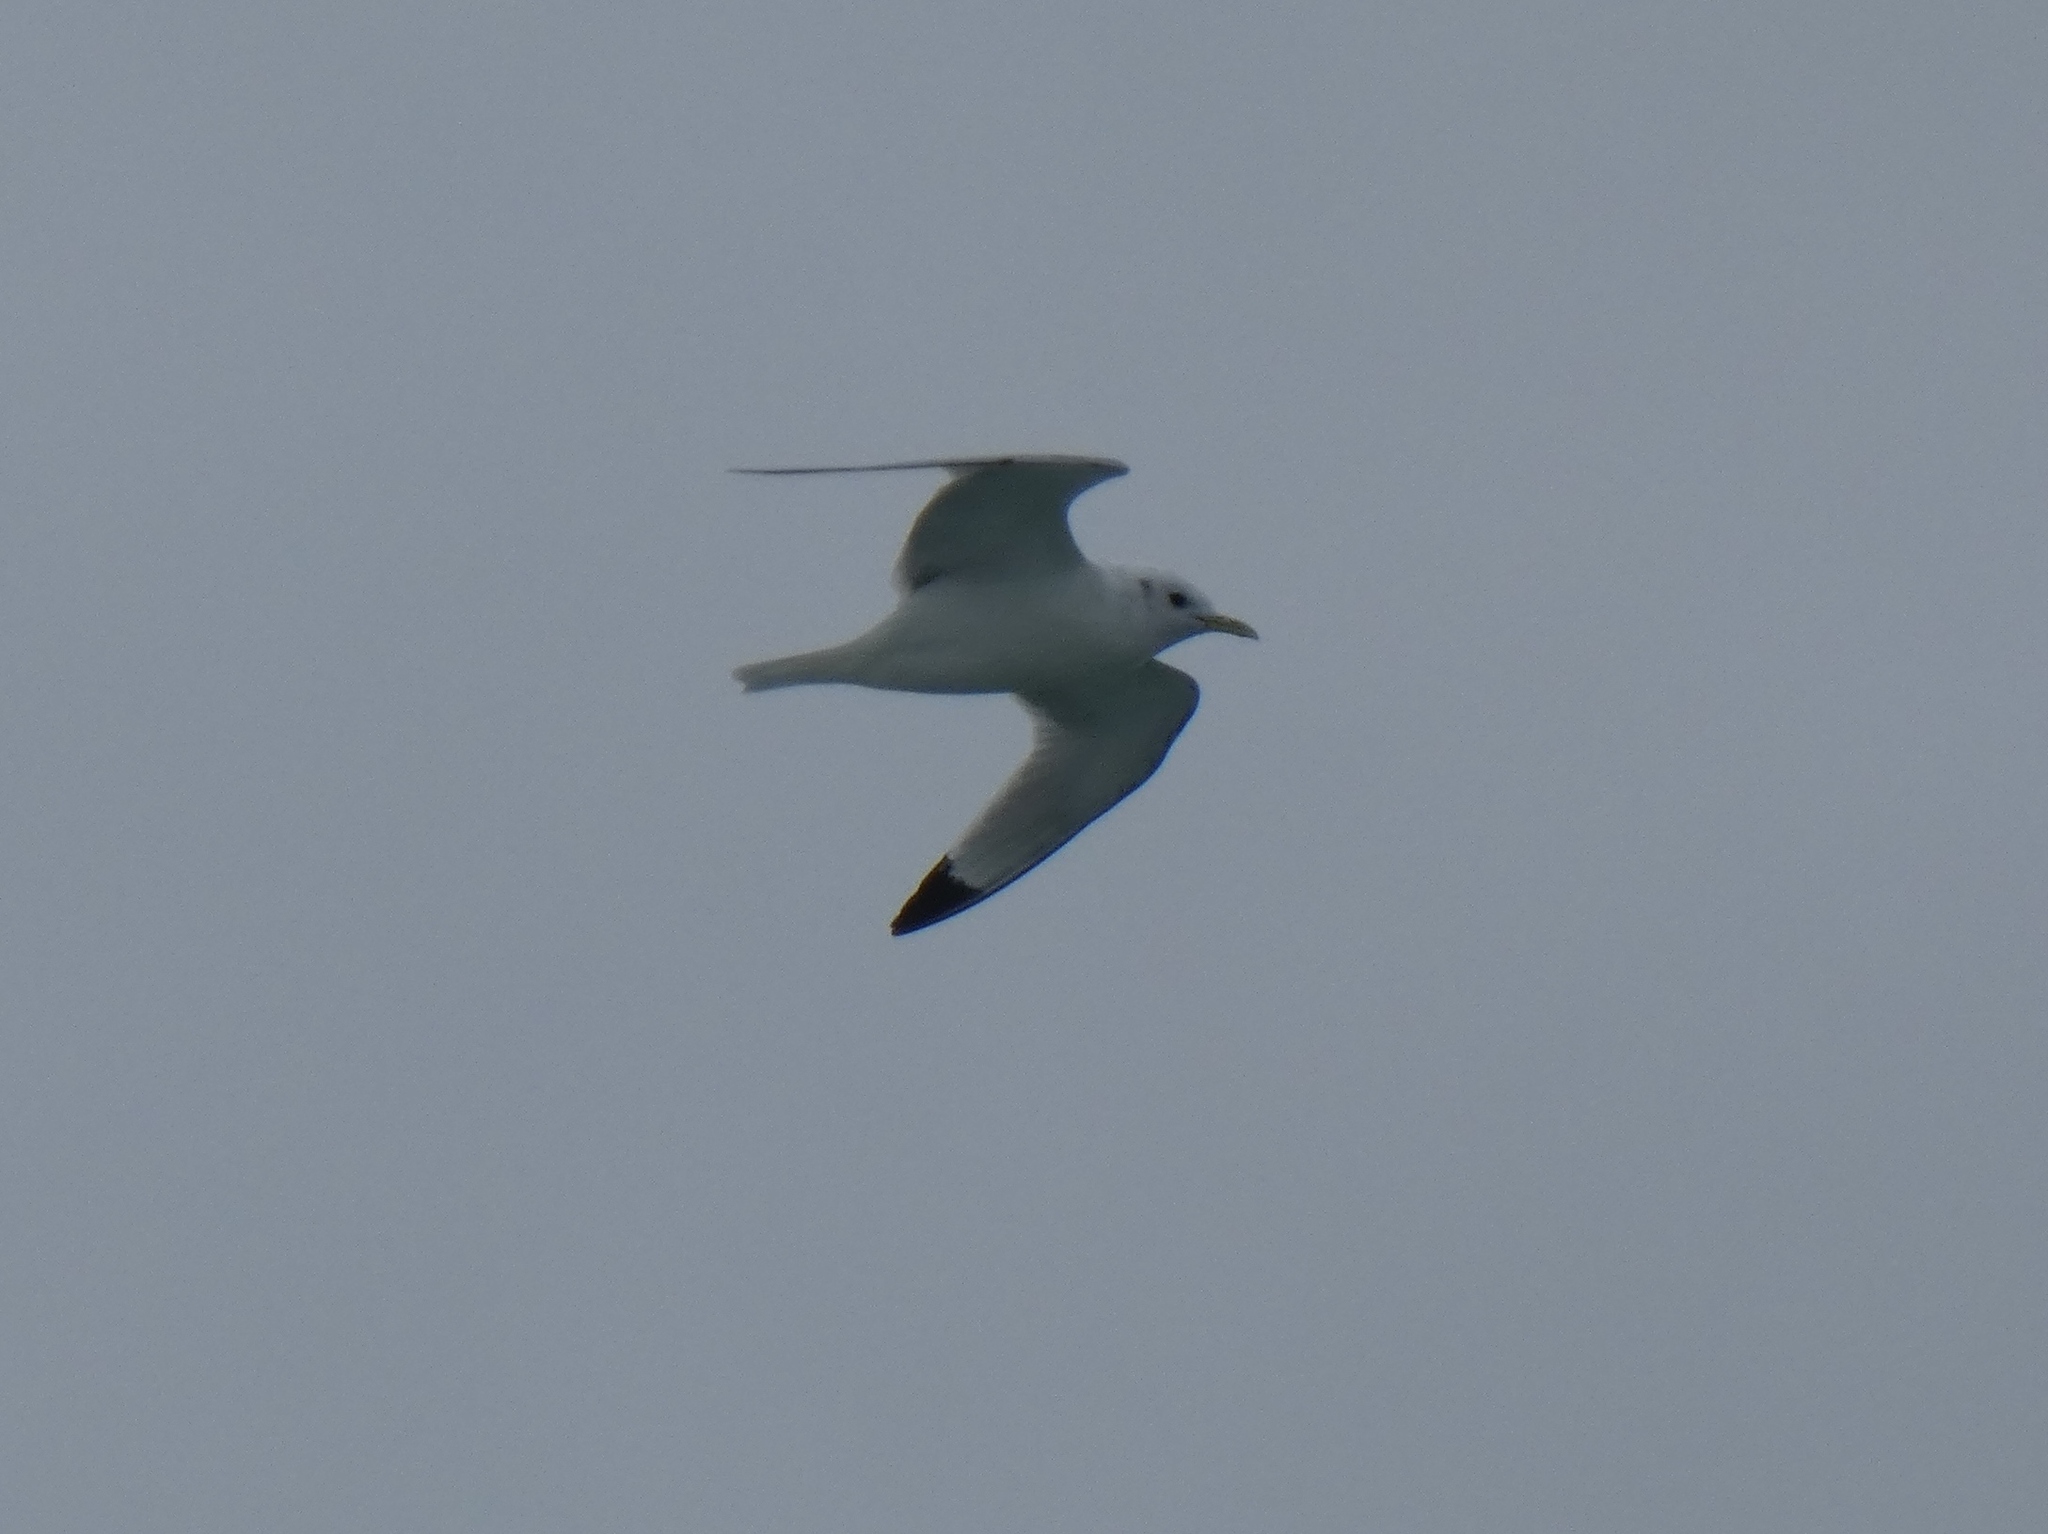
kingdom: Animalia
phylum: Chordata
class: Aves
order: Charadriiformes
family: Laridae
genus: Rissa
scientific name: Rissa tridactyla
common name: Black-legged kittiwake
